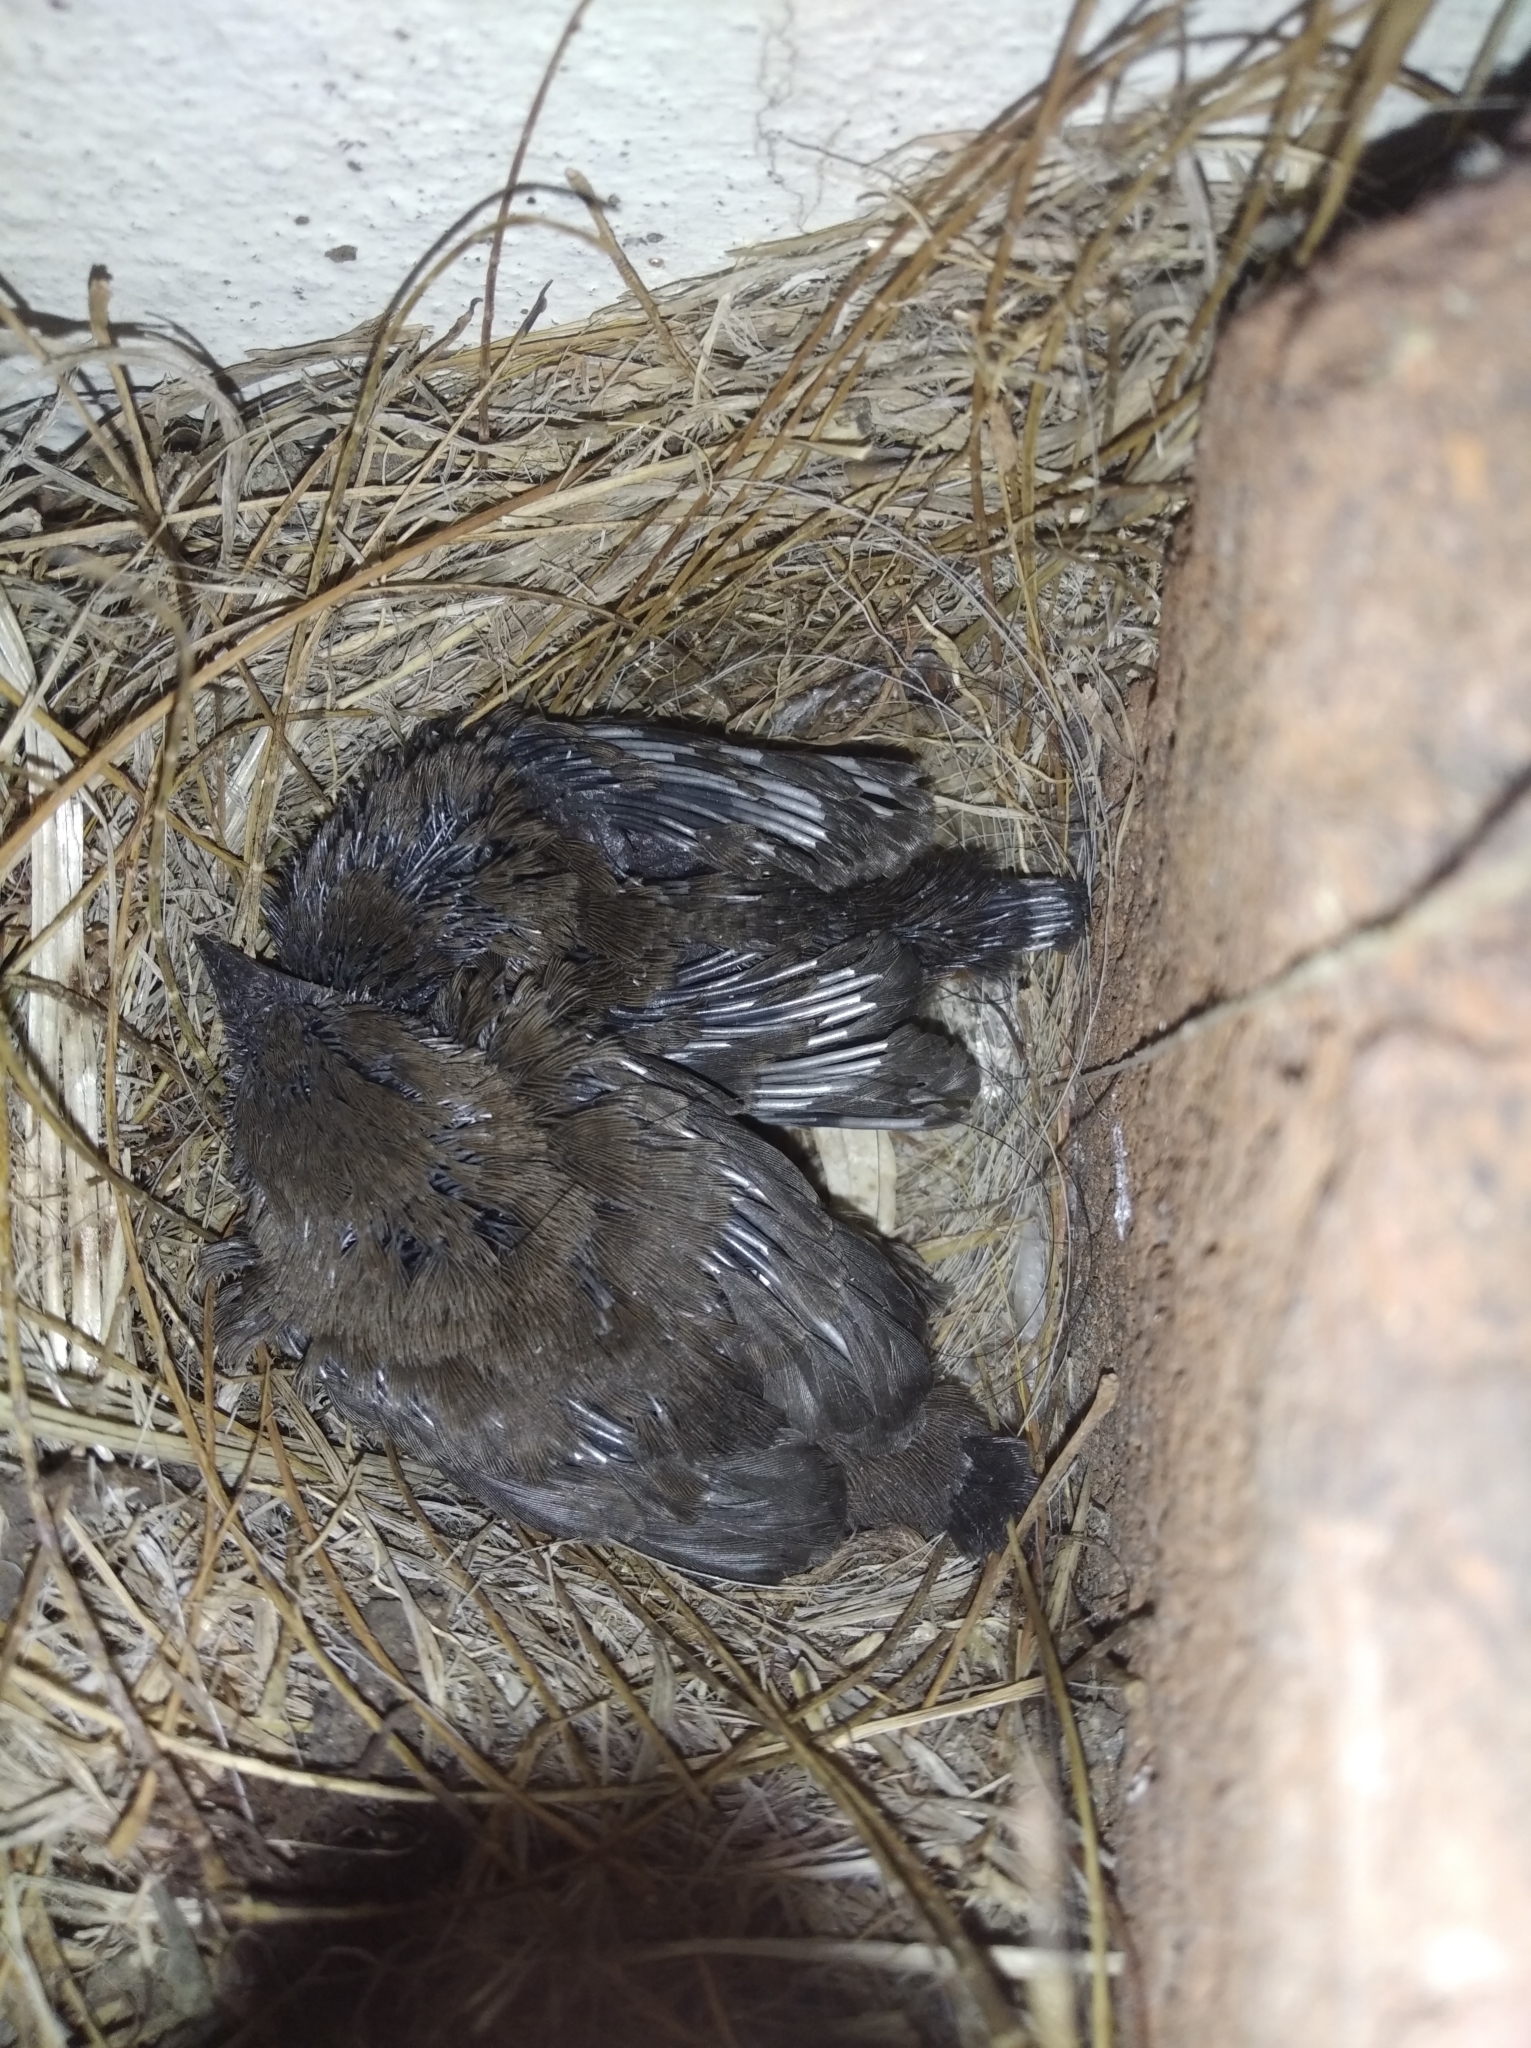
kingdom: Animalia
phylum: Chordata
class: Aves
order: Passeriformes
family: Muscicapidae
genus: Saxicoloides
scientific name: Saxicoloides fulicatus
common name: Indian robin
